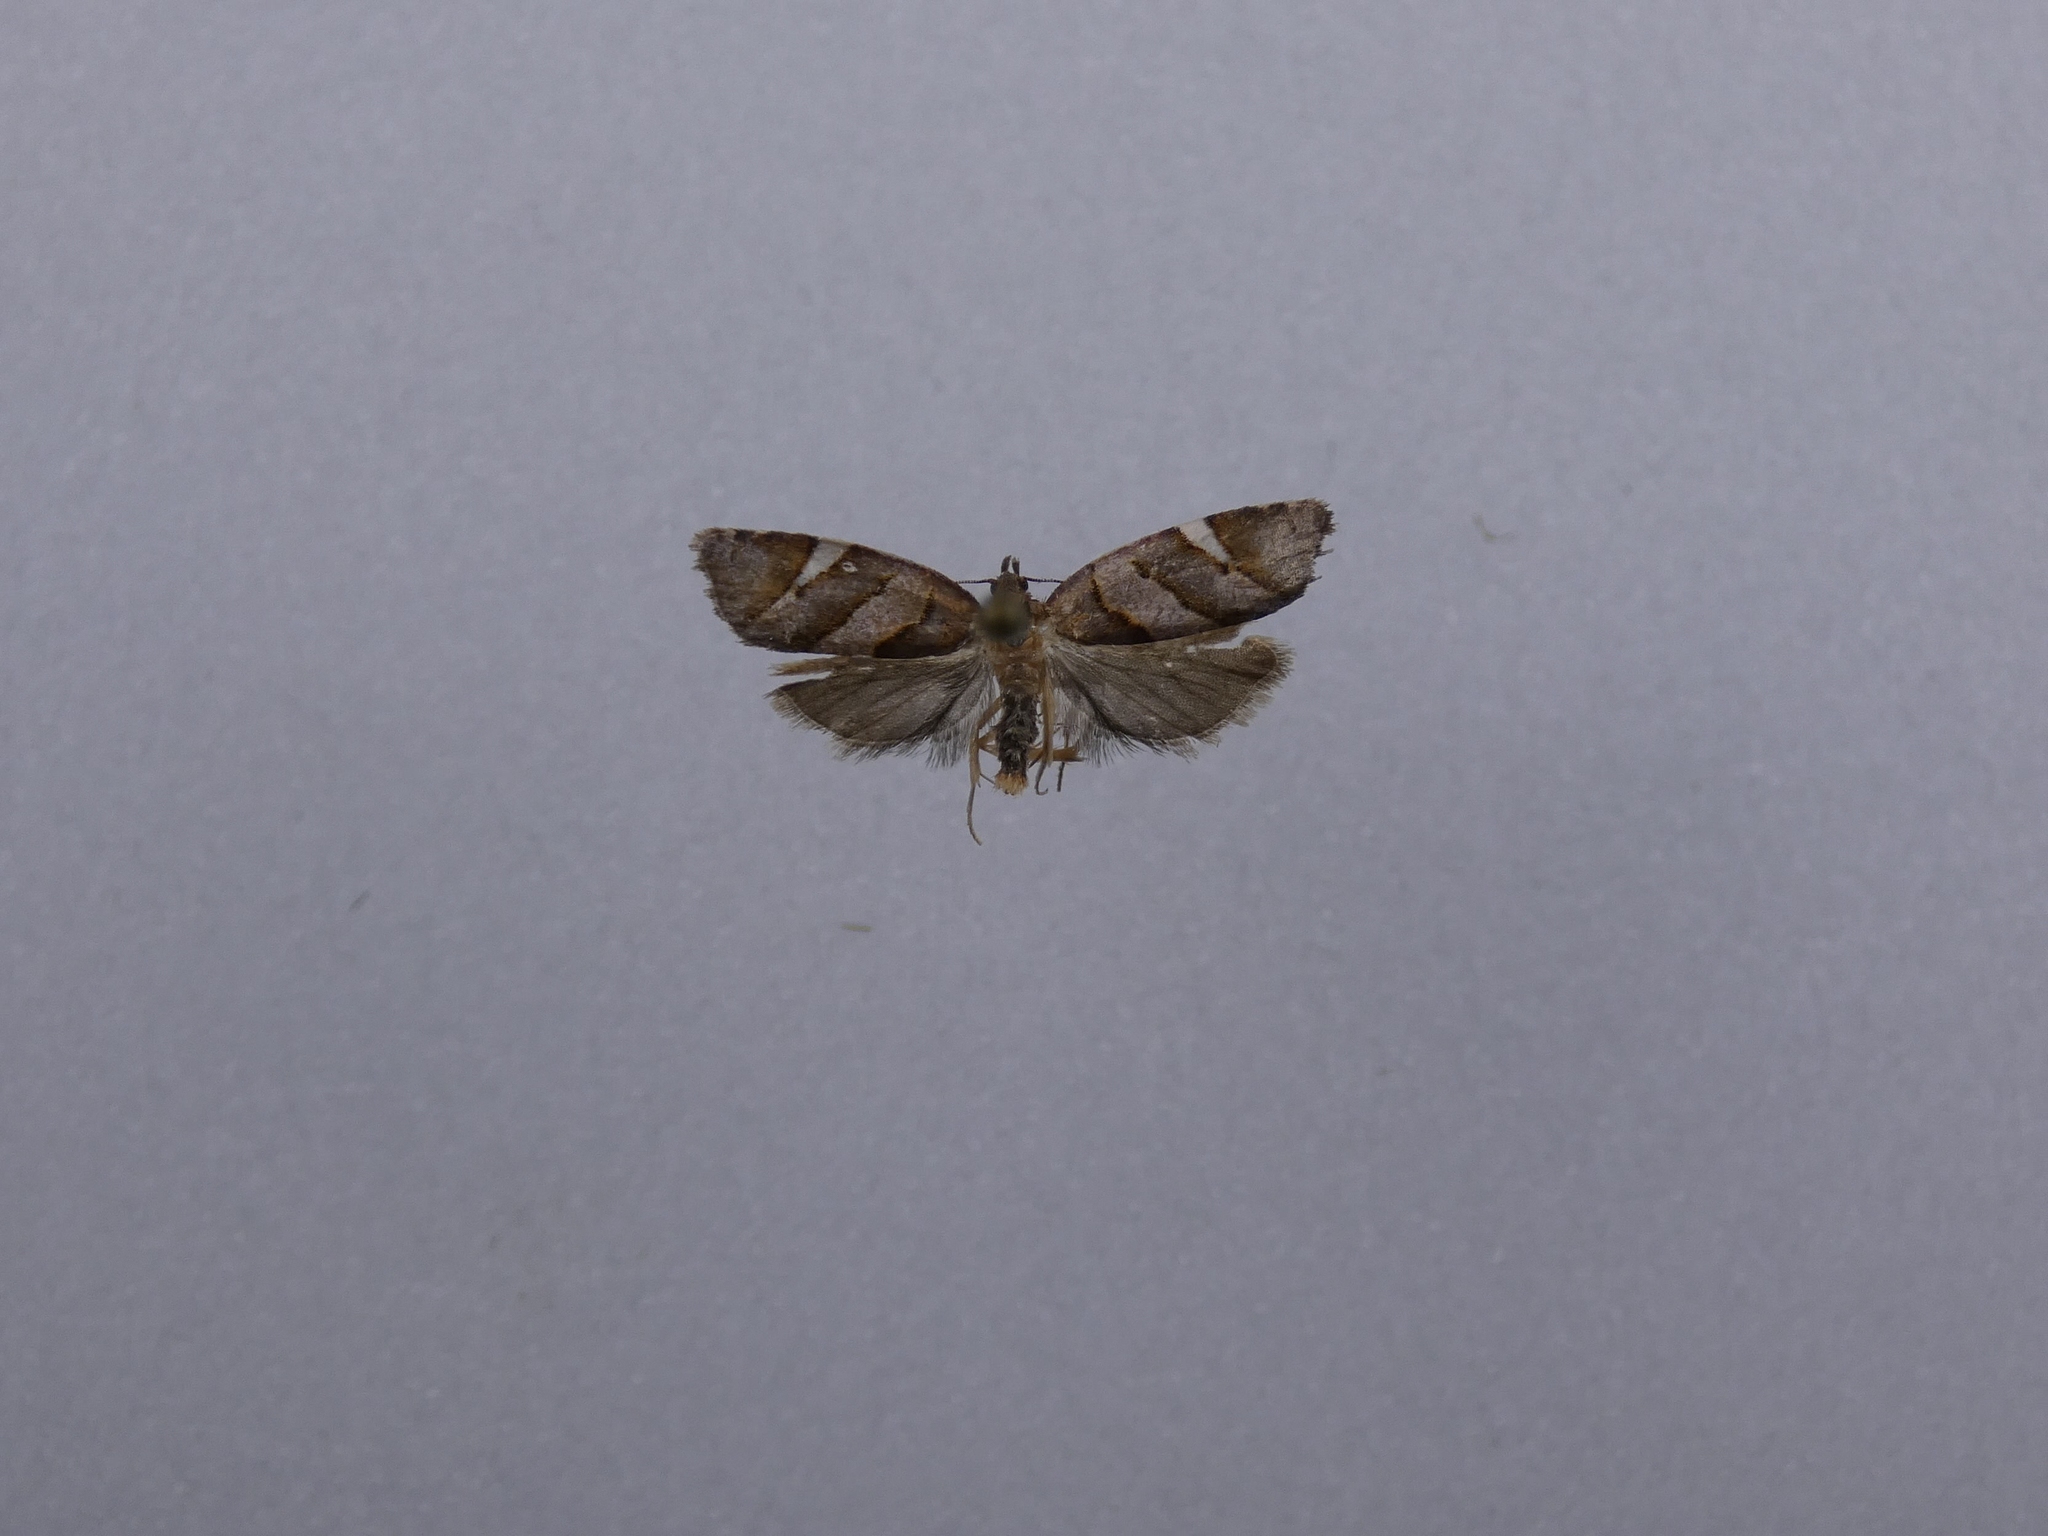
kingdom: Animalia
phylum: Arthropoda
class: Insecta
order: Lepidoptera
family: Tortricidae
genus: Ecclitica
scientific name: Ecclitica torogramma
